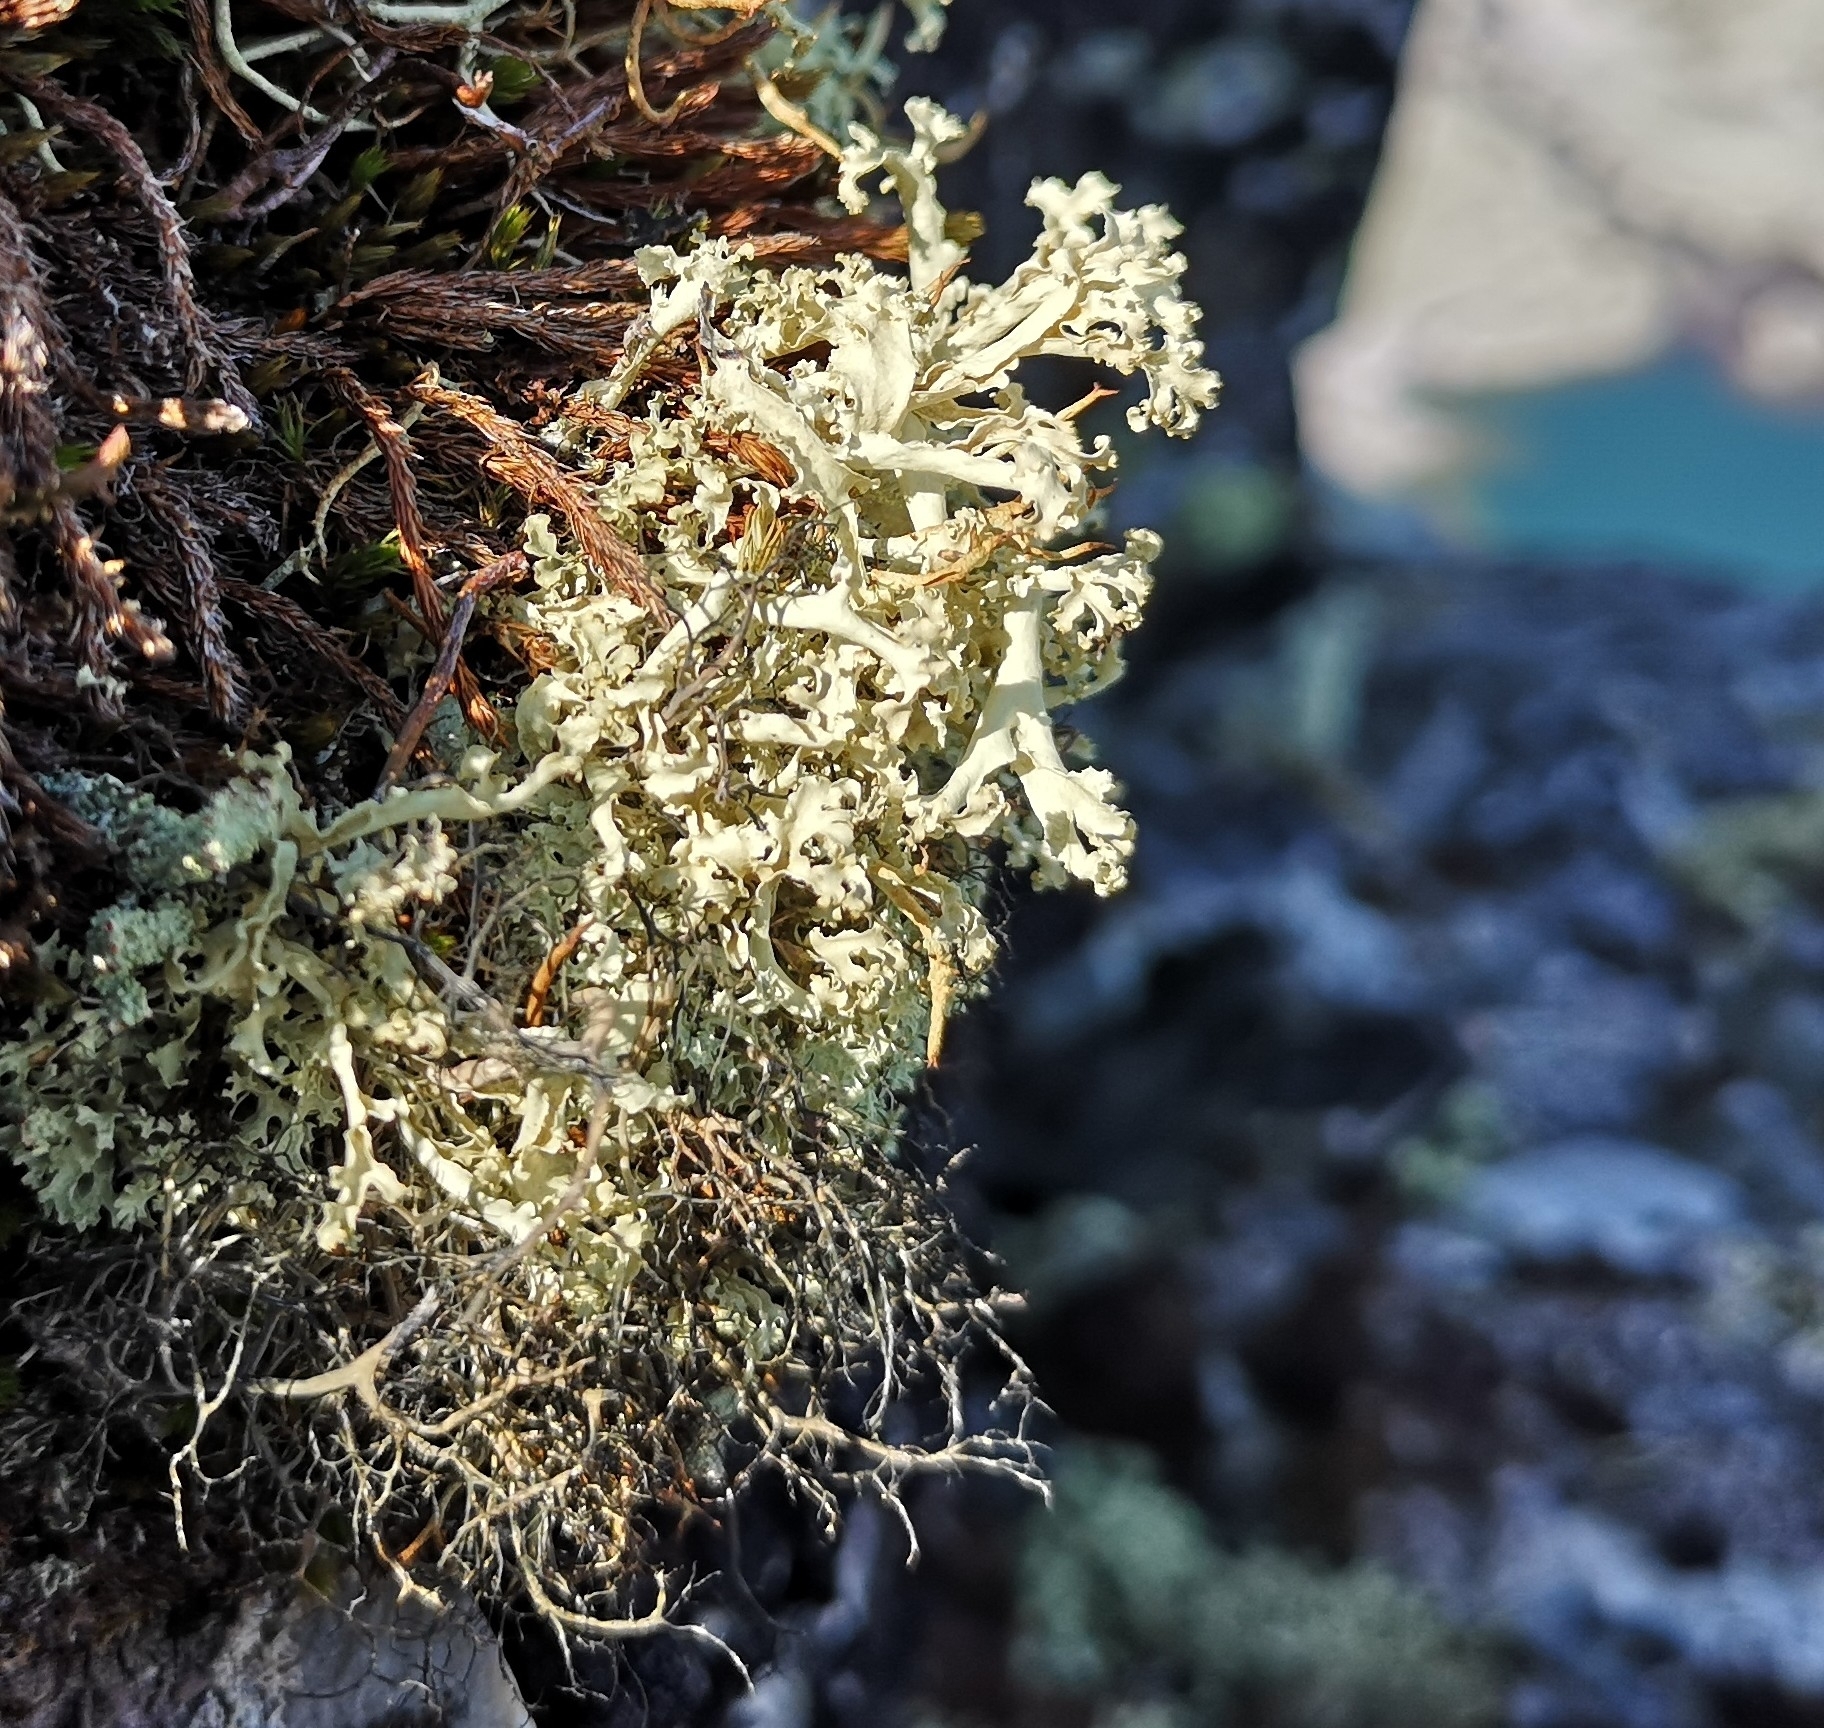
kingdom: Fungi
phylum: Ascomycota
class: Lecanoromycetes
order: Lecanorales
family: Parmeliaceae
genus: Nephromopsis
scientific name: Nephromopsis cucullata
